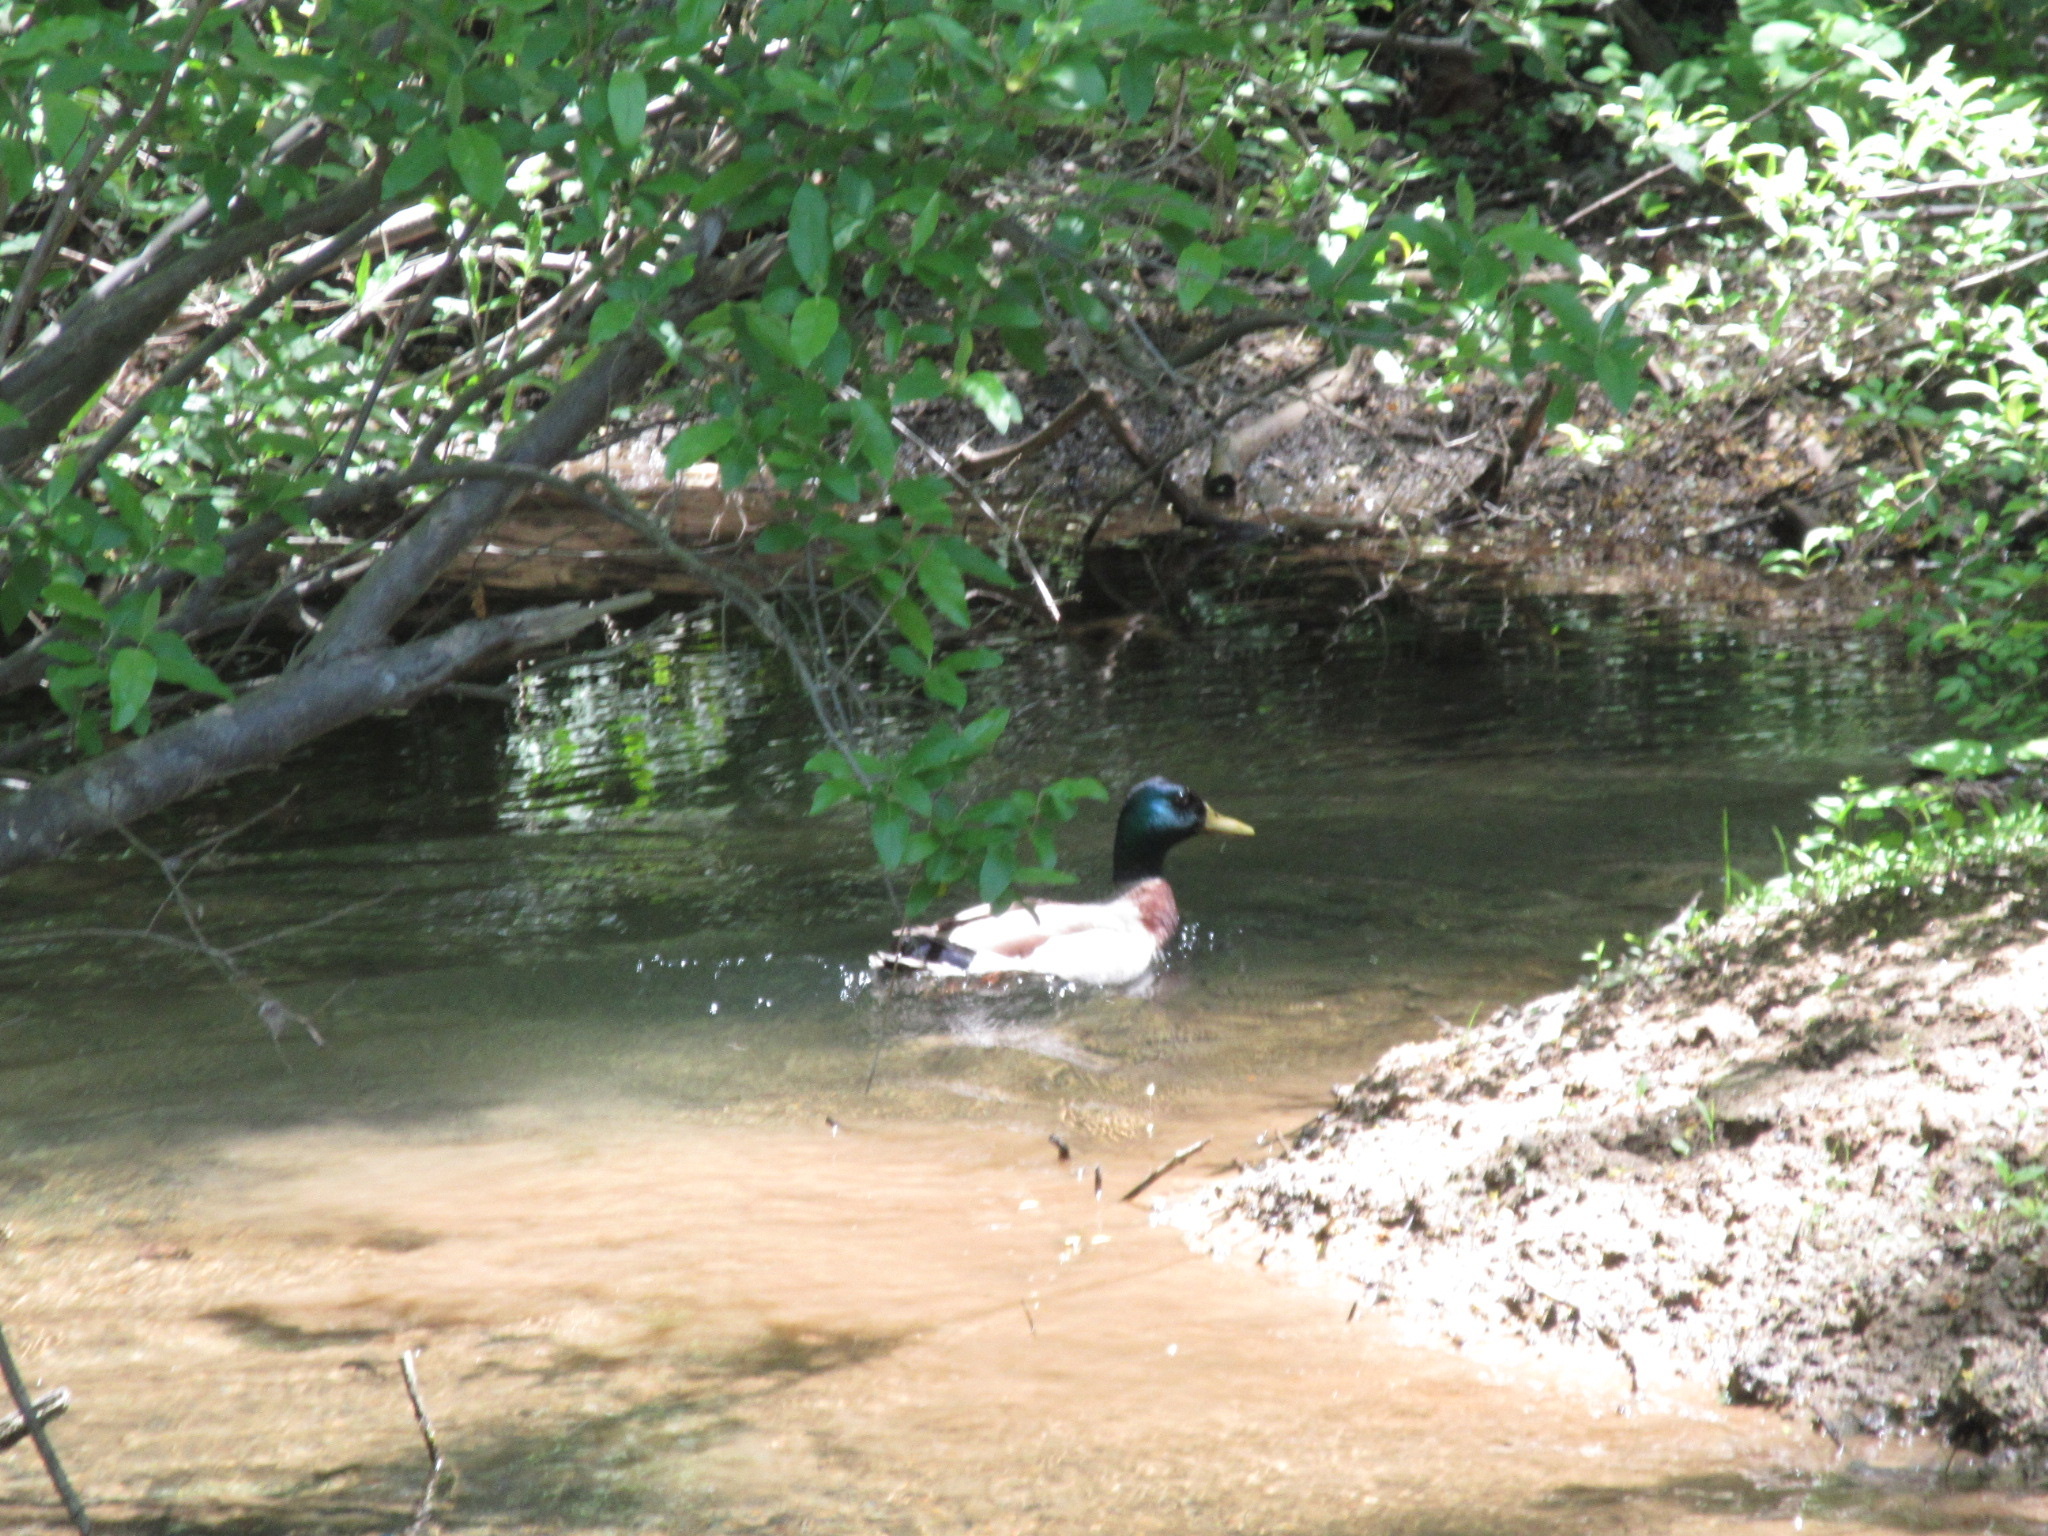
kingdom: Animalia
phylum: Chordata
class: Aves
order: Anseriformes
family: Anatidae
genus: Anas
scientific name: Anas platyrhynchos
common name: Mallard
